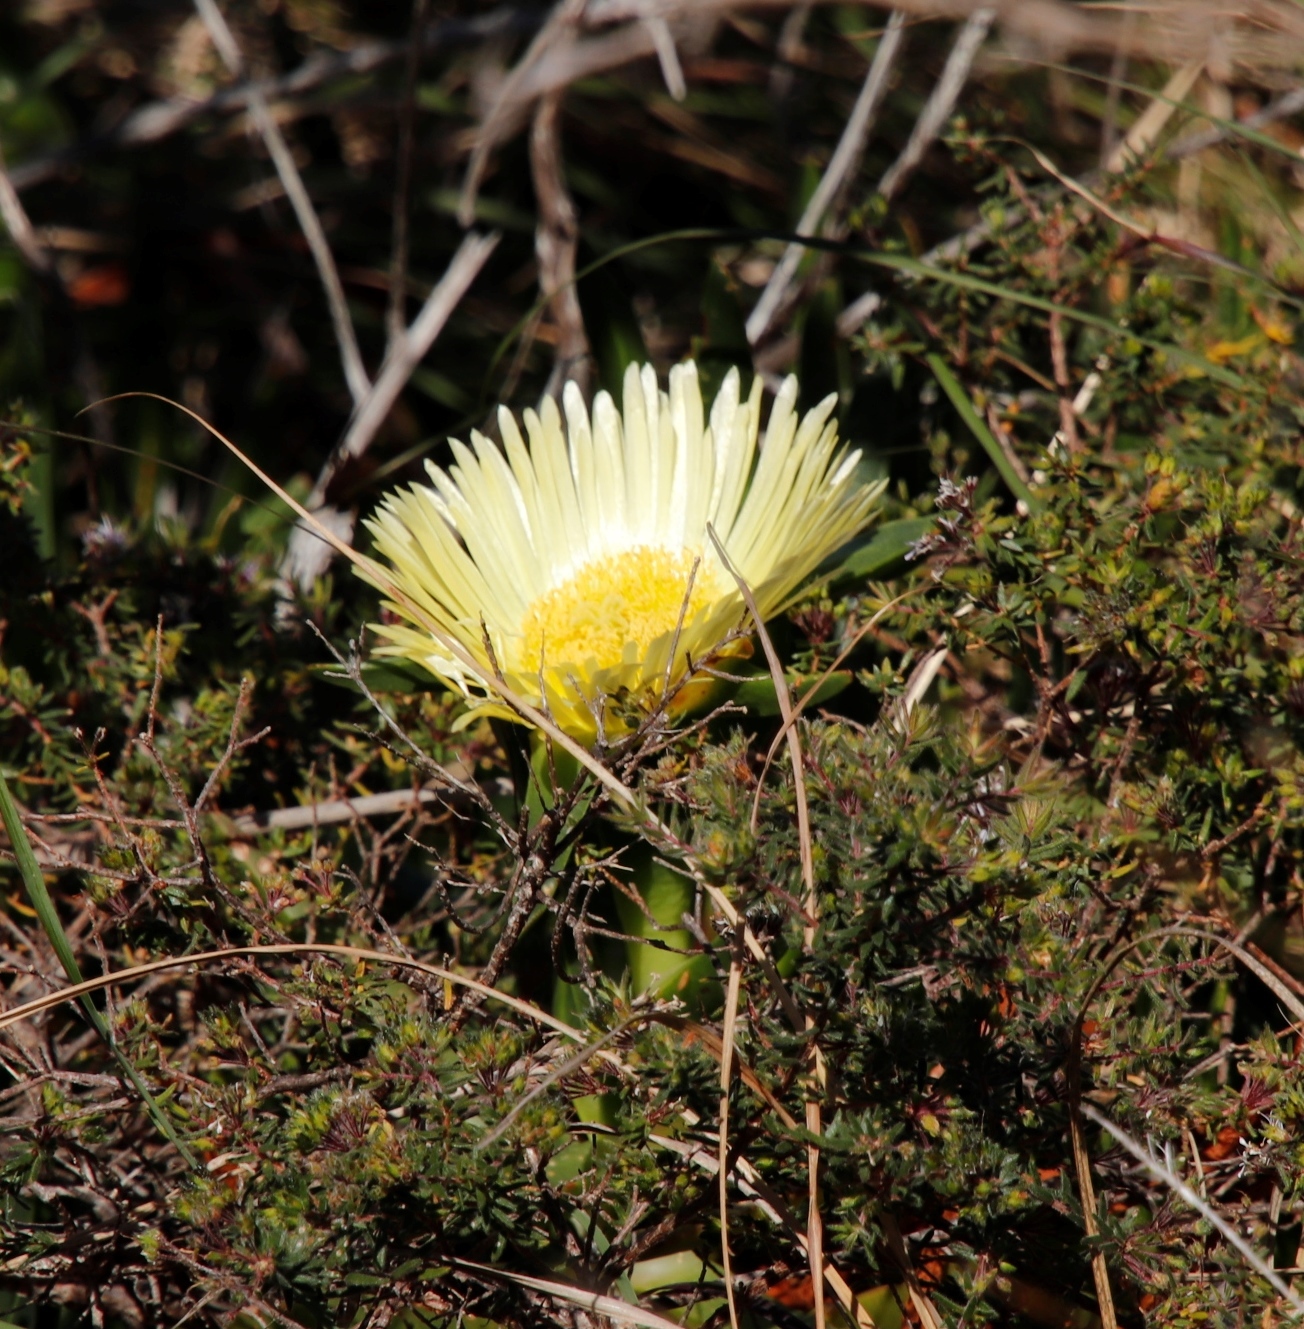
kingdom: Plantae
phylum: Tracheophyta
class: Magnoliopsida
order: Caryophyllales
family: Aizoaceae
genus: Carpobrotus
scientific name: Carpobrotus edulis
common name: Hottentot-fig
